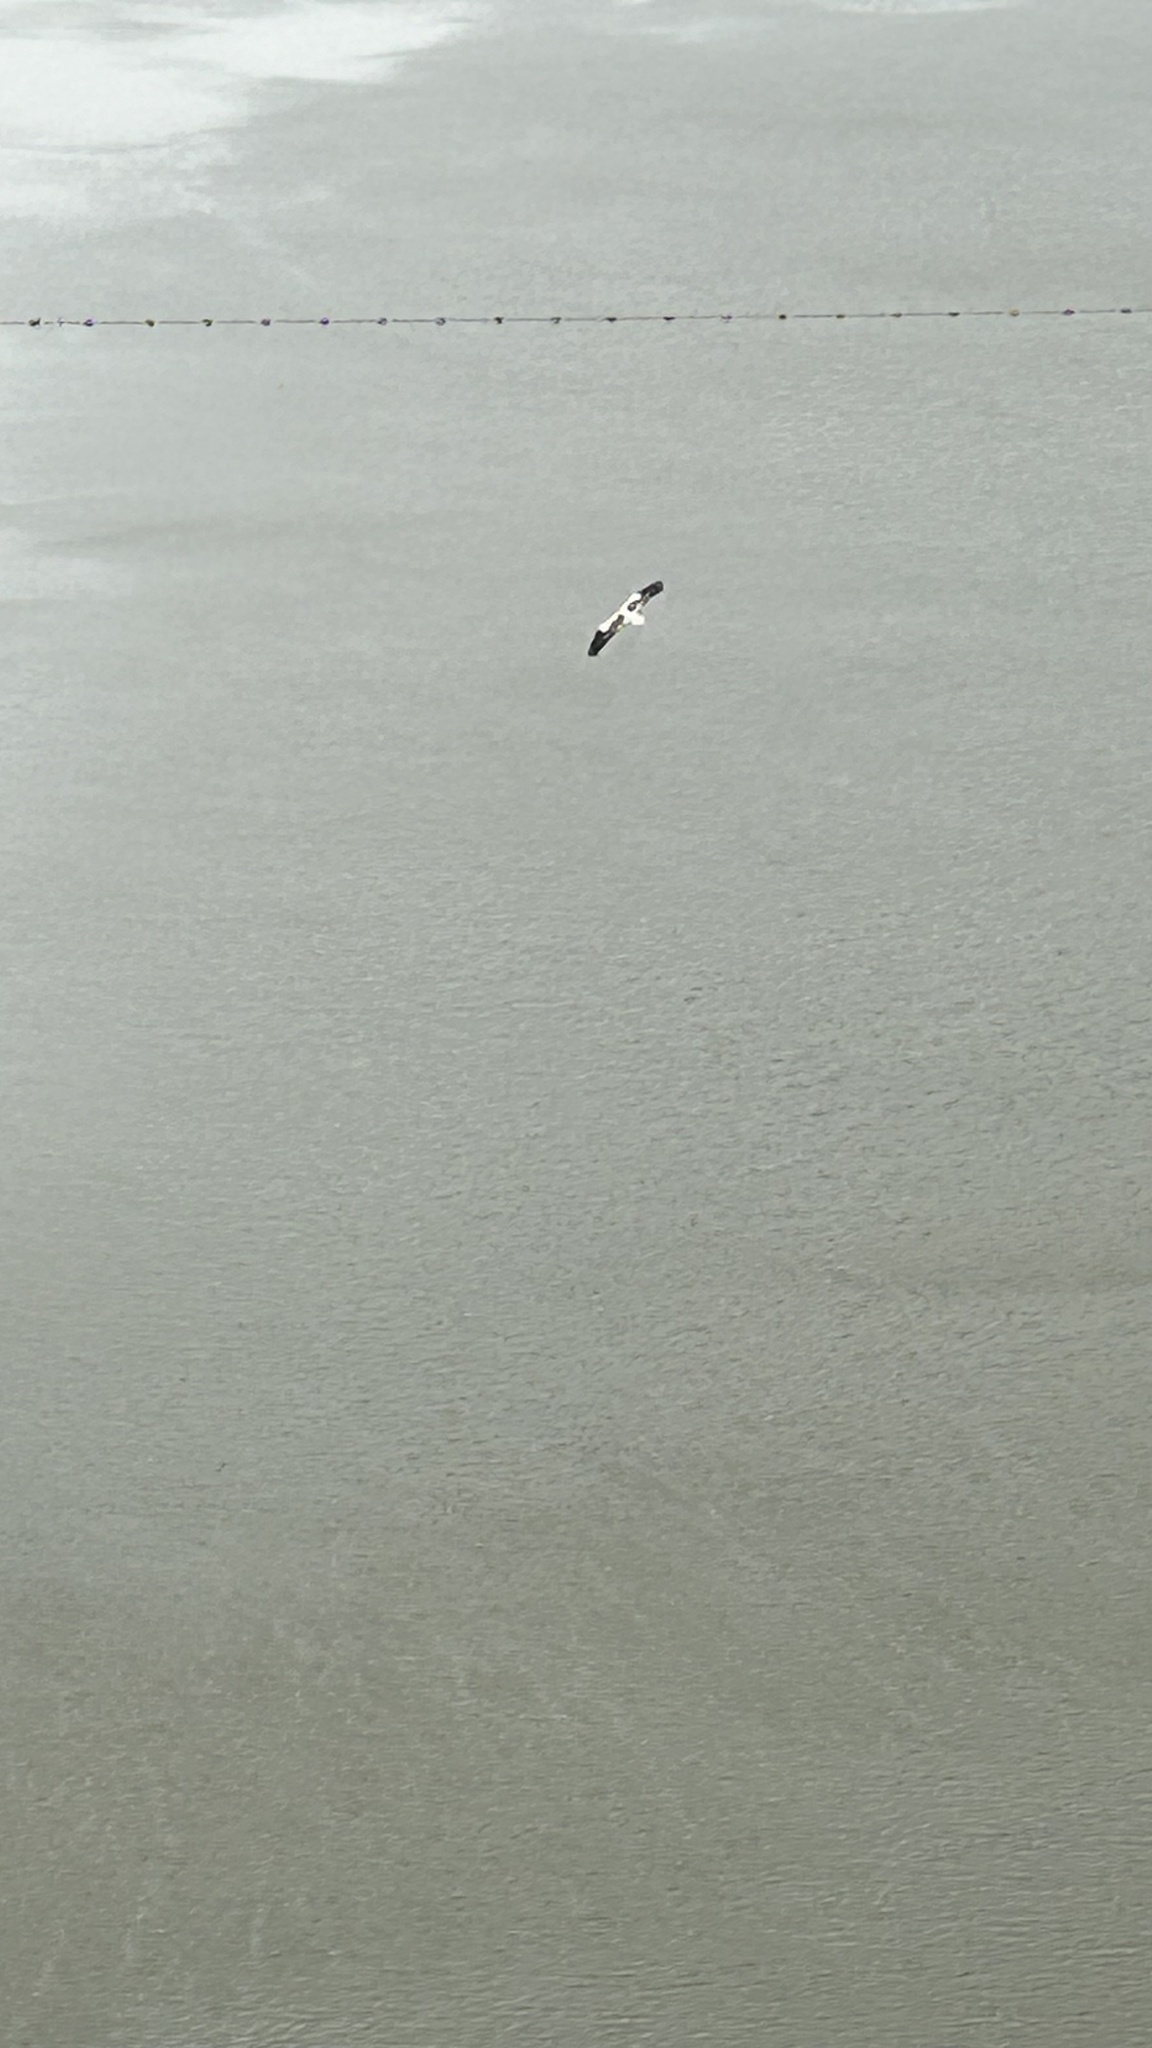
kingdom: Animalia
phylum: Chordata
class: Aves
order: Accipitriformes
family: Accipitridae
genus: Neophron
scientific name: Neophron percnopterus
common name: Egyptian vulture
